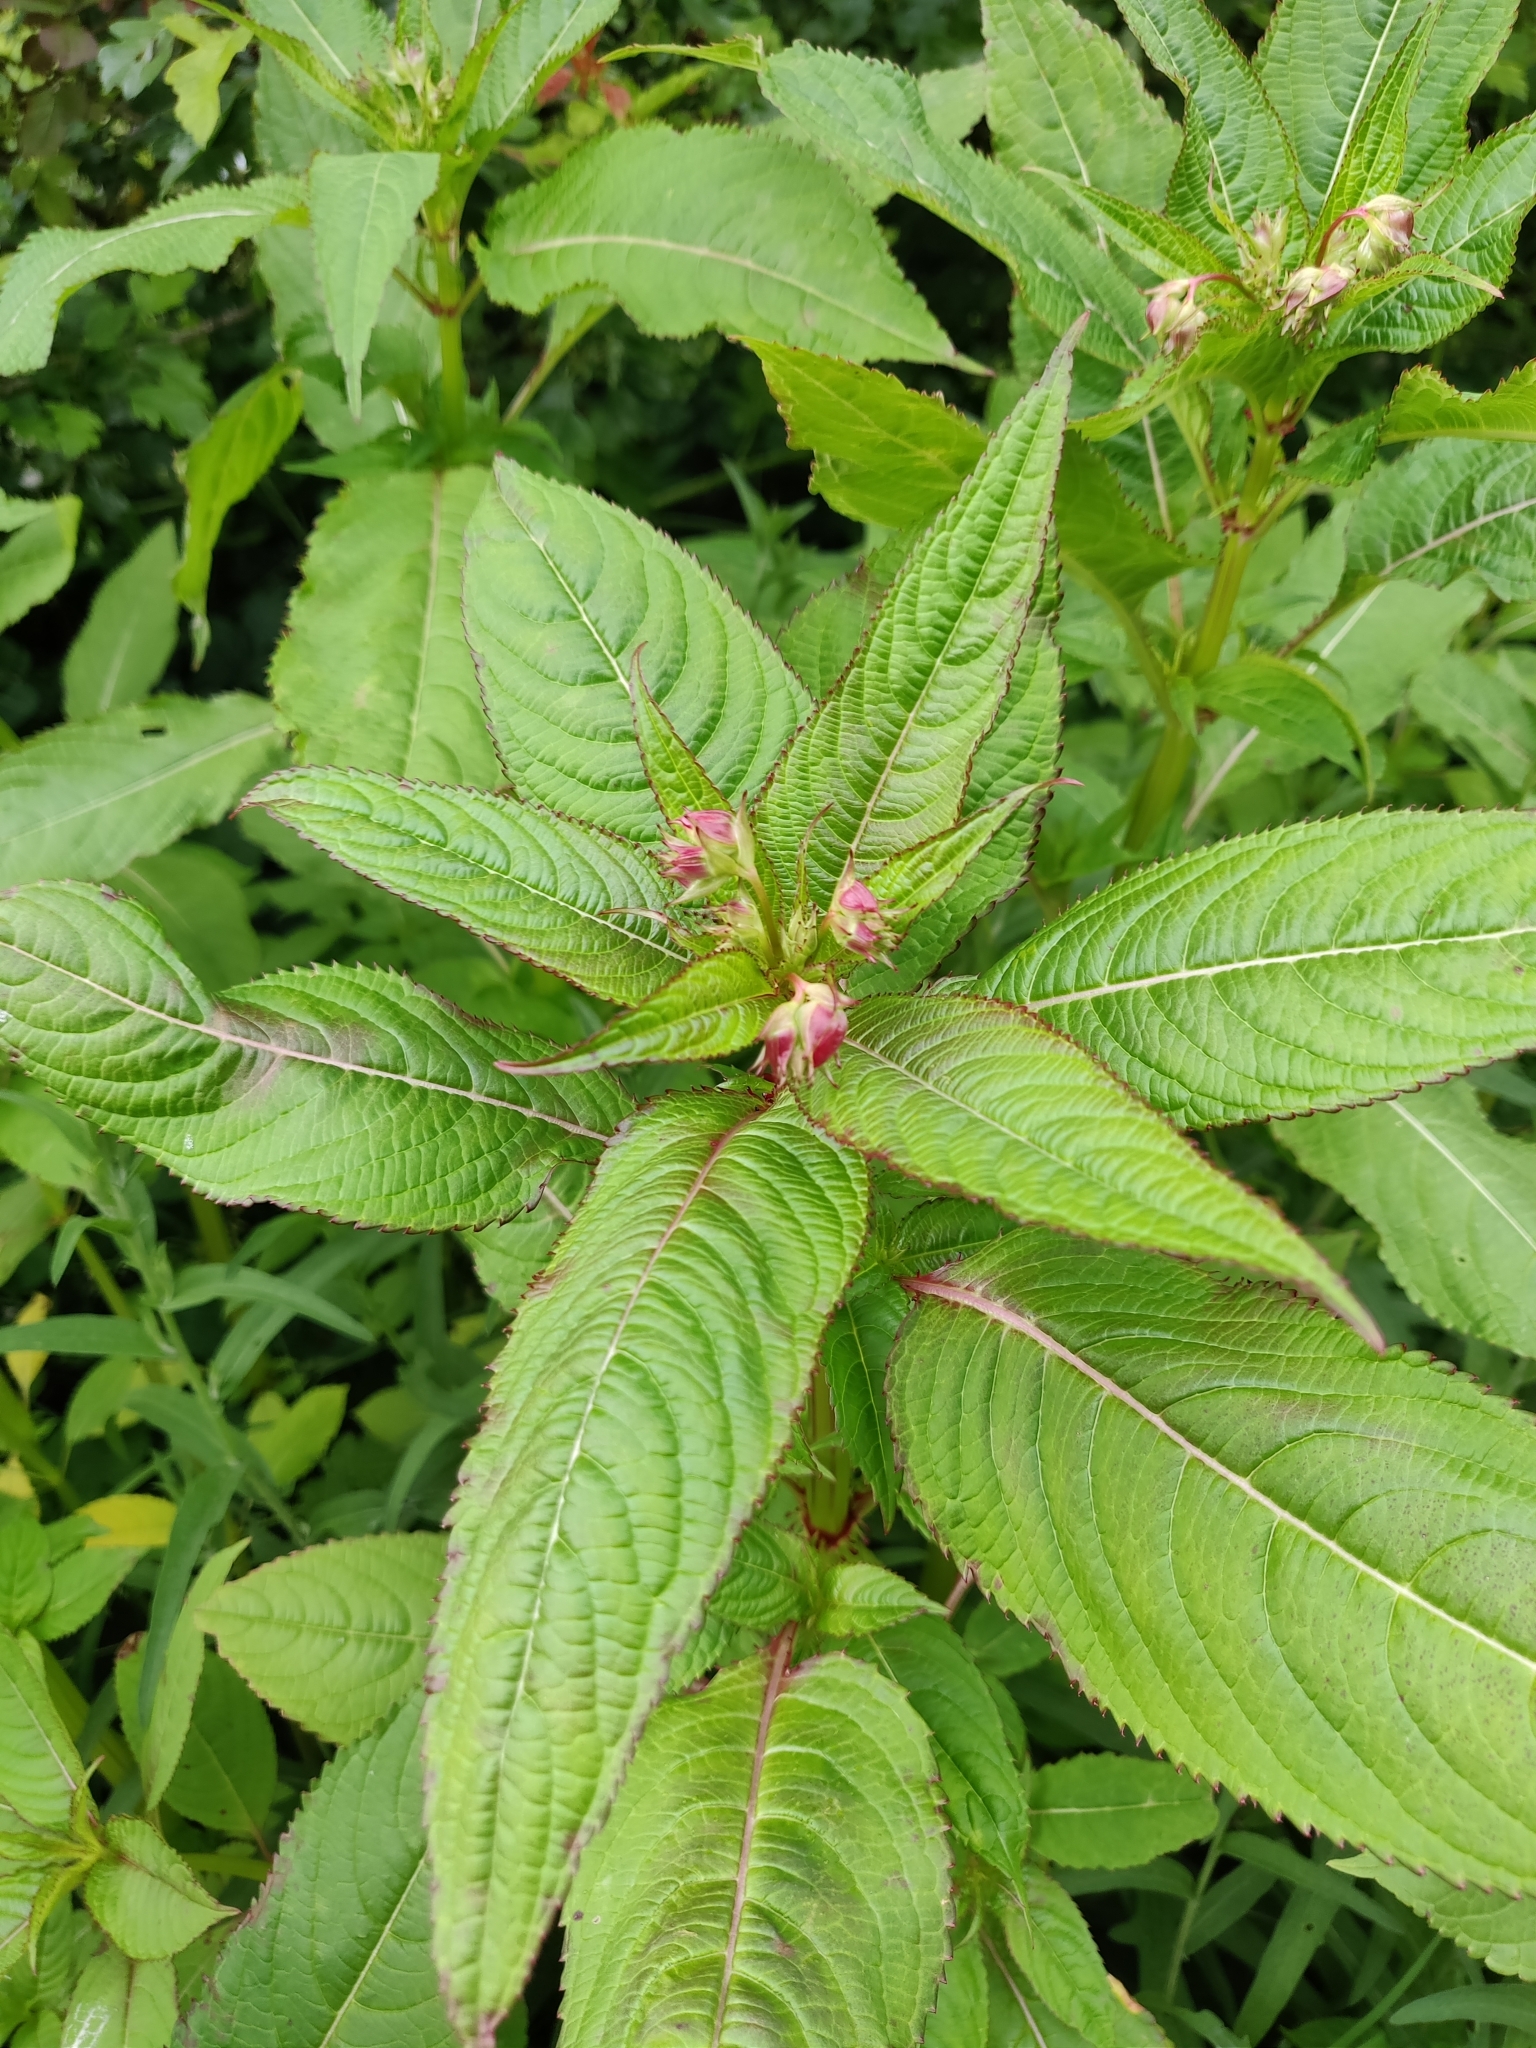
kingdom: Plantae
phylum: Tracheophyta
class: Magnoliopsida
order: Ericales
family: Balsaminaceae
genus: Impatiens
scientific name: Impatiens glandulifera
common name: Himalayan balsam
